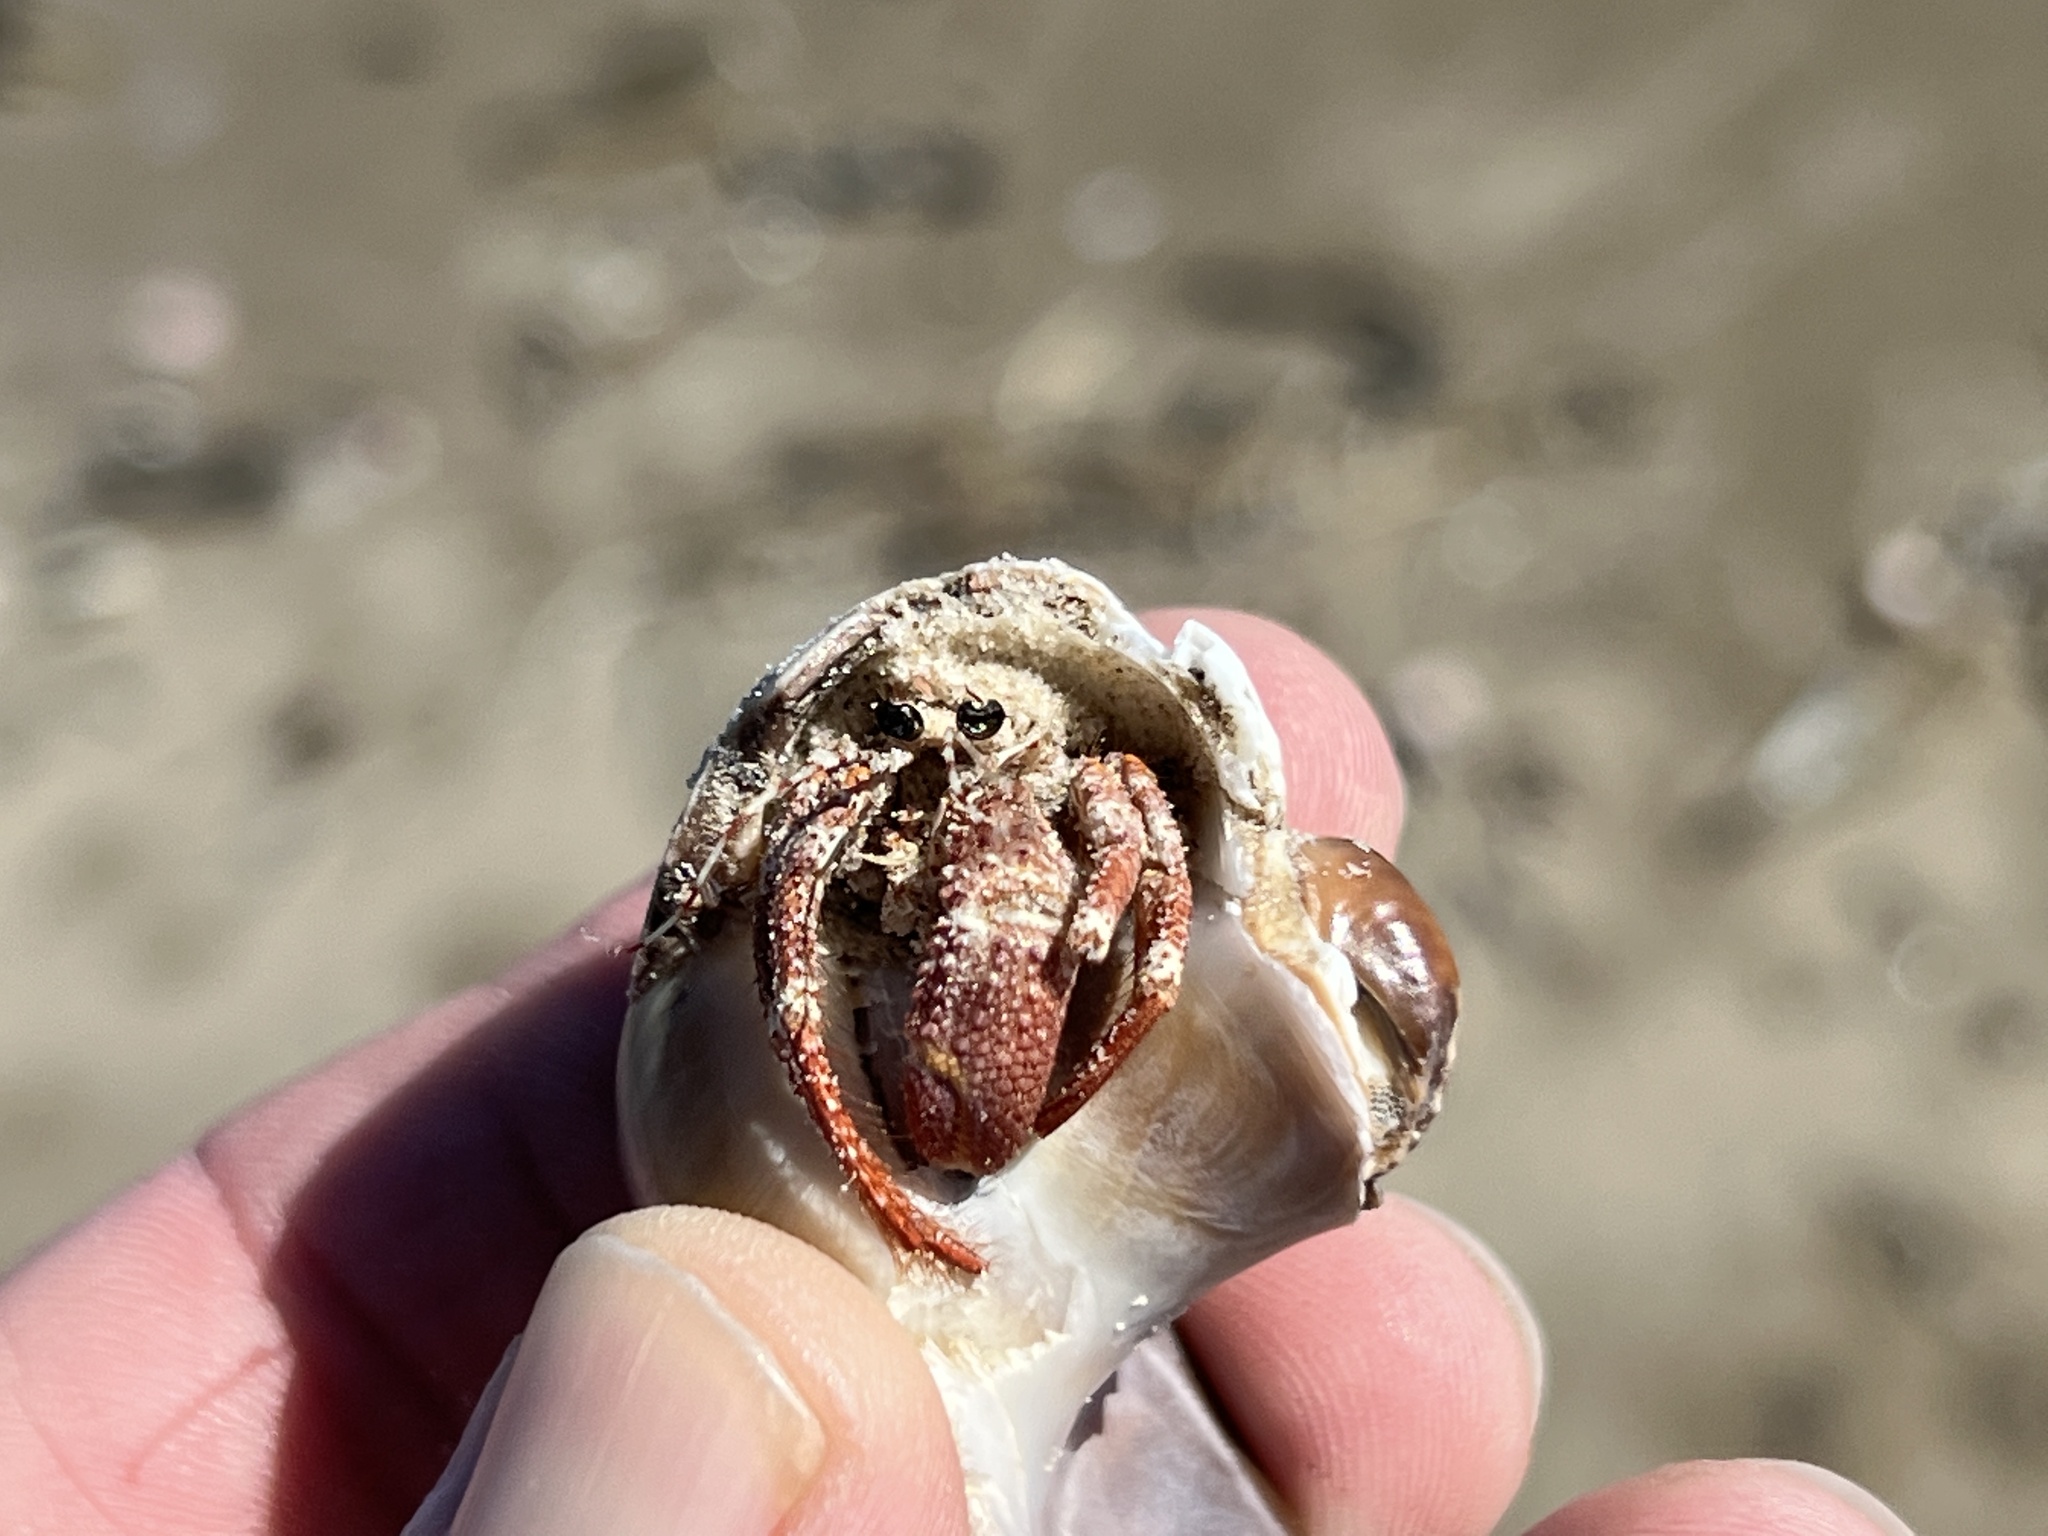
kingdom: Animalia
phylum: Arthropoda
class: Malacostraca
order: Decapoda
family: Diogenidae
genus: Petrochirus
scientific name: Petrochirus diogenes
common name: Giant hermit crab
